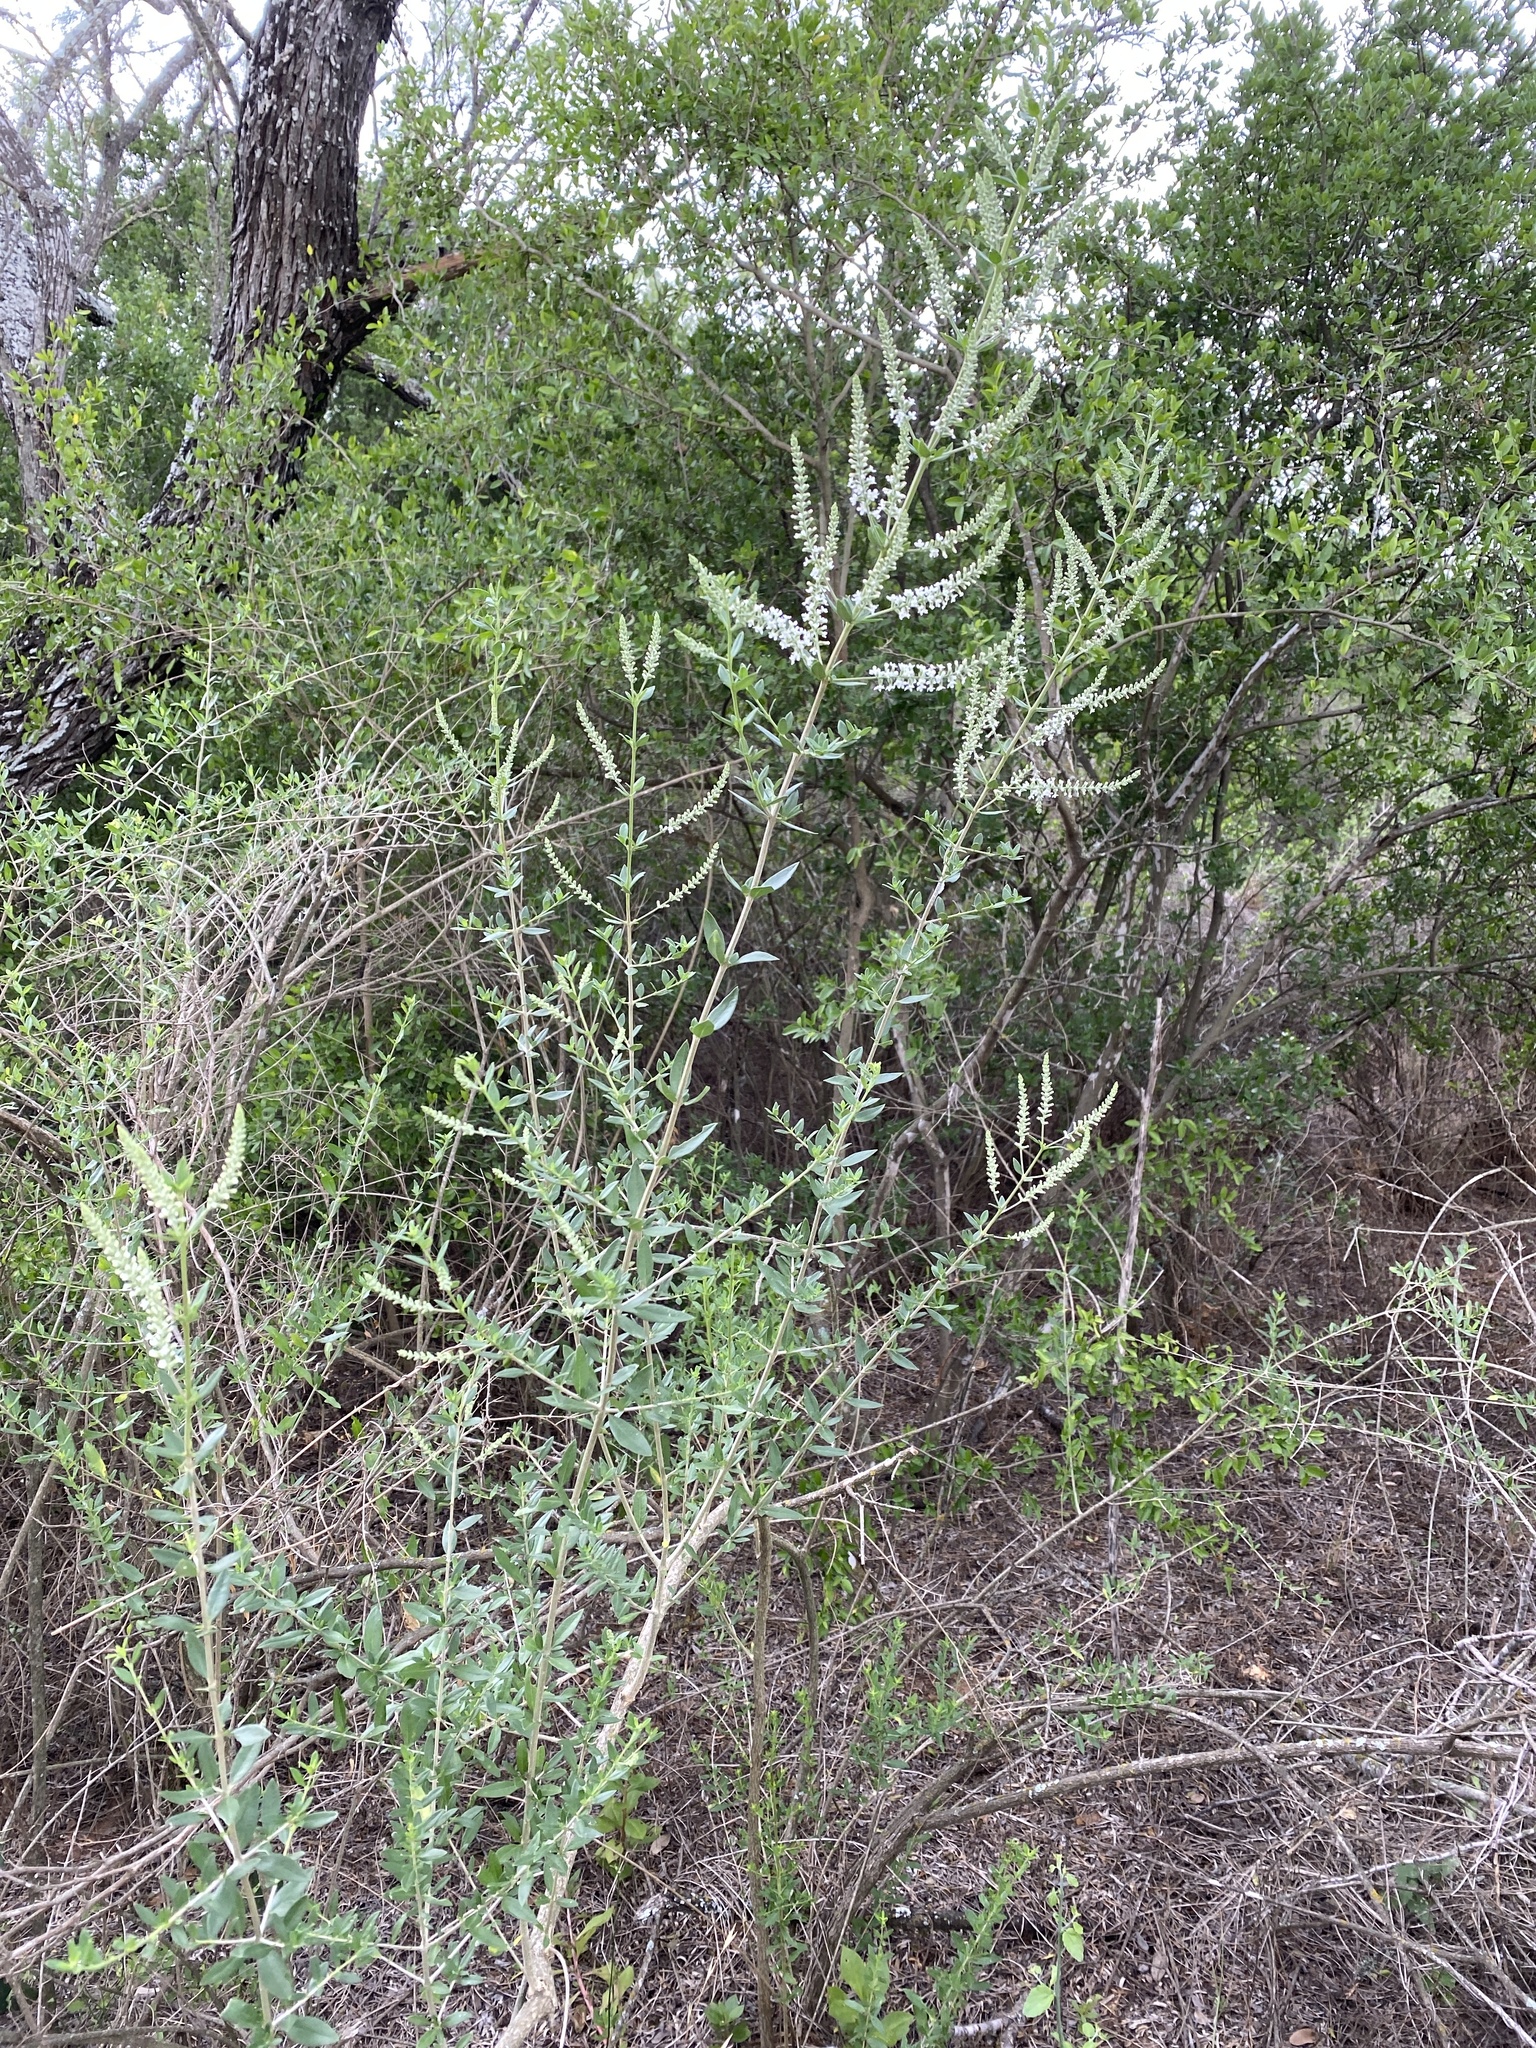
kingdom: Plantae
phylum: Tracheophyta
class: Magnoliopsida
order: Lamiales
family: Verbenaceae
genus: Aloysia
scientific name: Aloysia gratissima
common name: Common bee-brush
